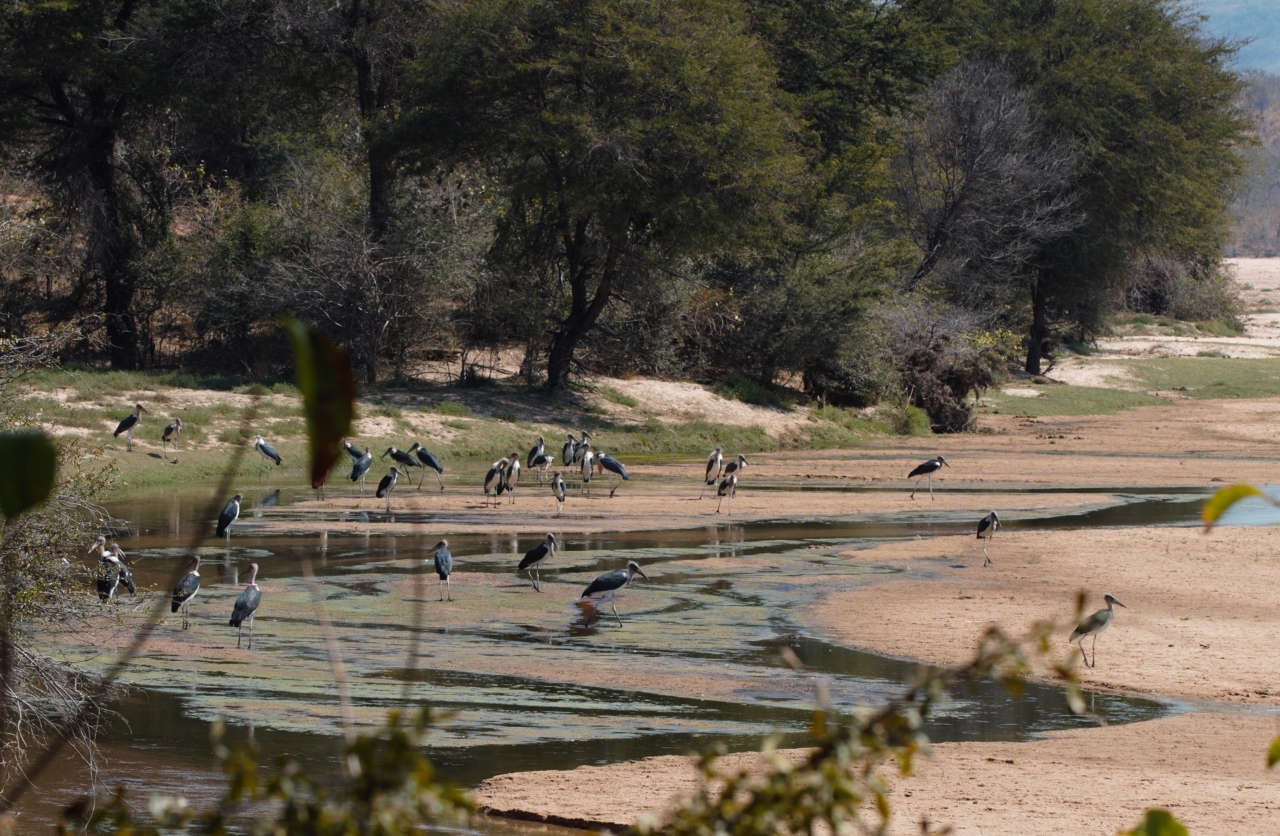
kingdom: Animalia
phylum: Chordata
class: Aves
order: Ciconiiformes
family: Ciconiidae
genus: Leptoptilos
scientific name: Leptoptilos crumenifer
